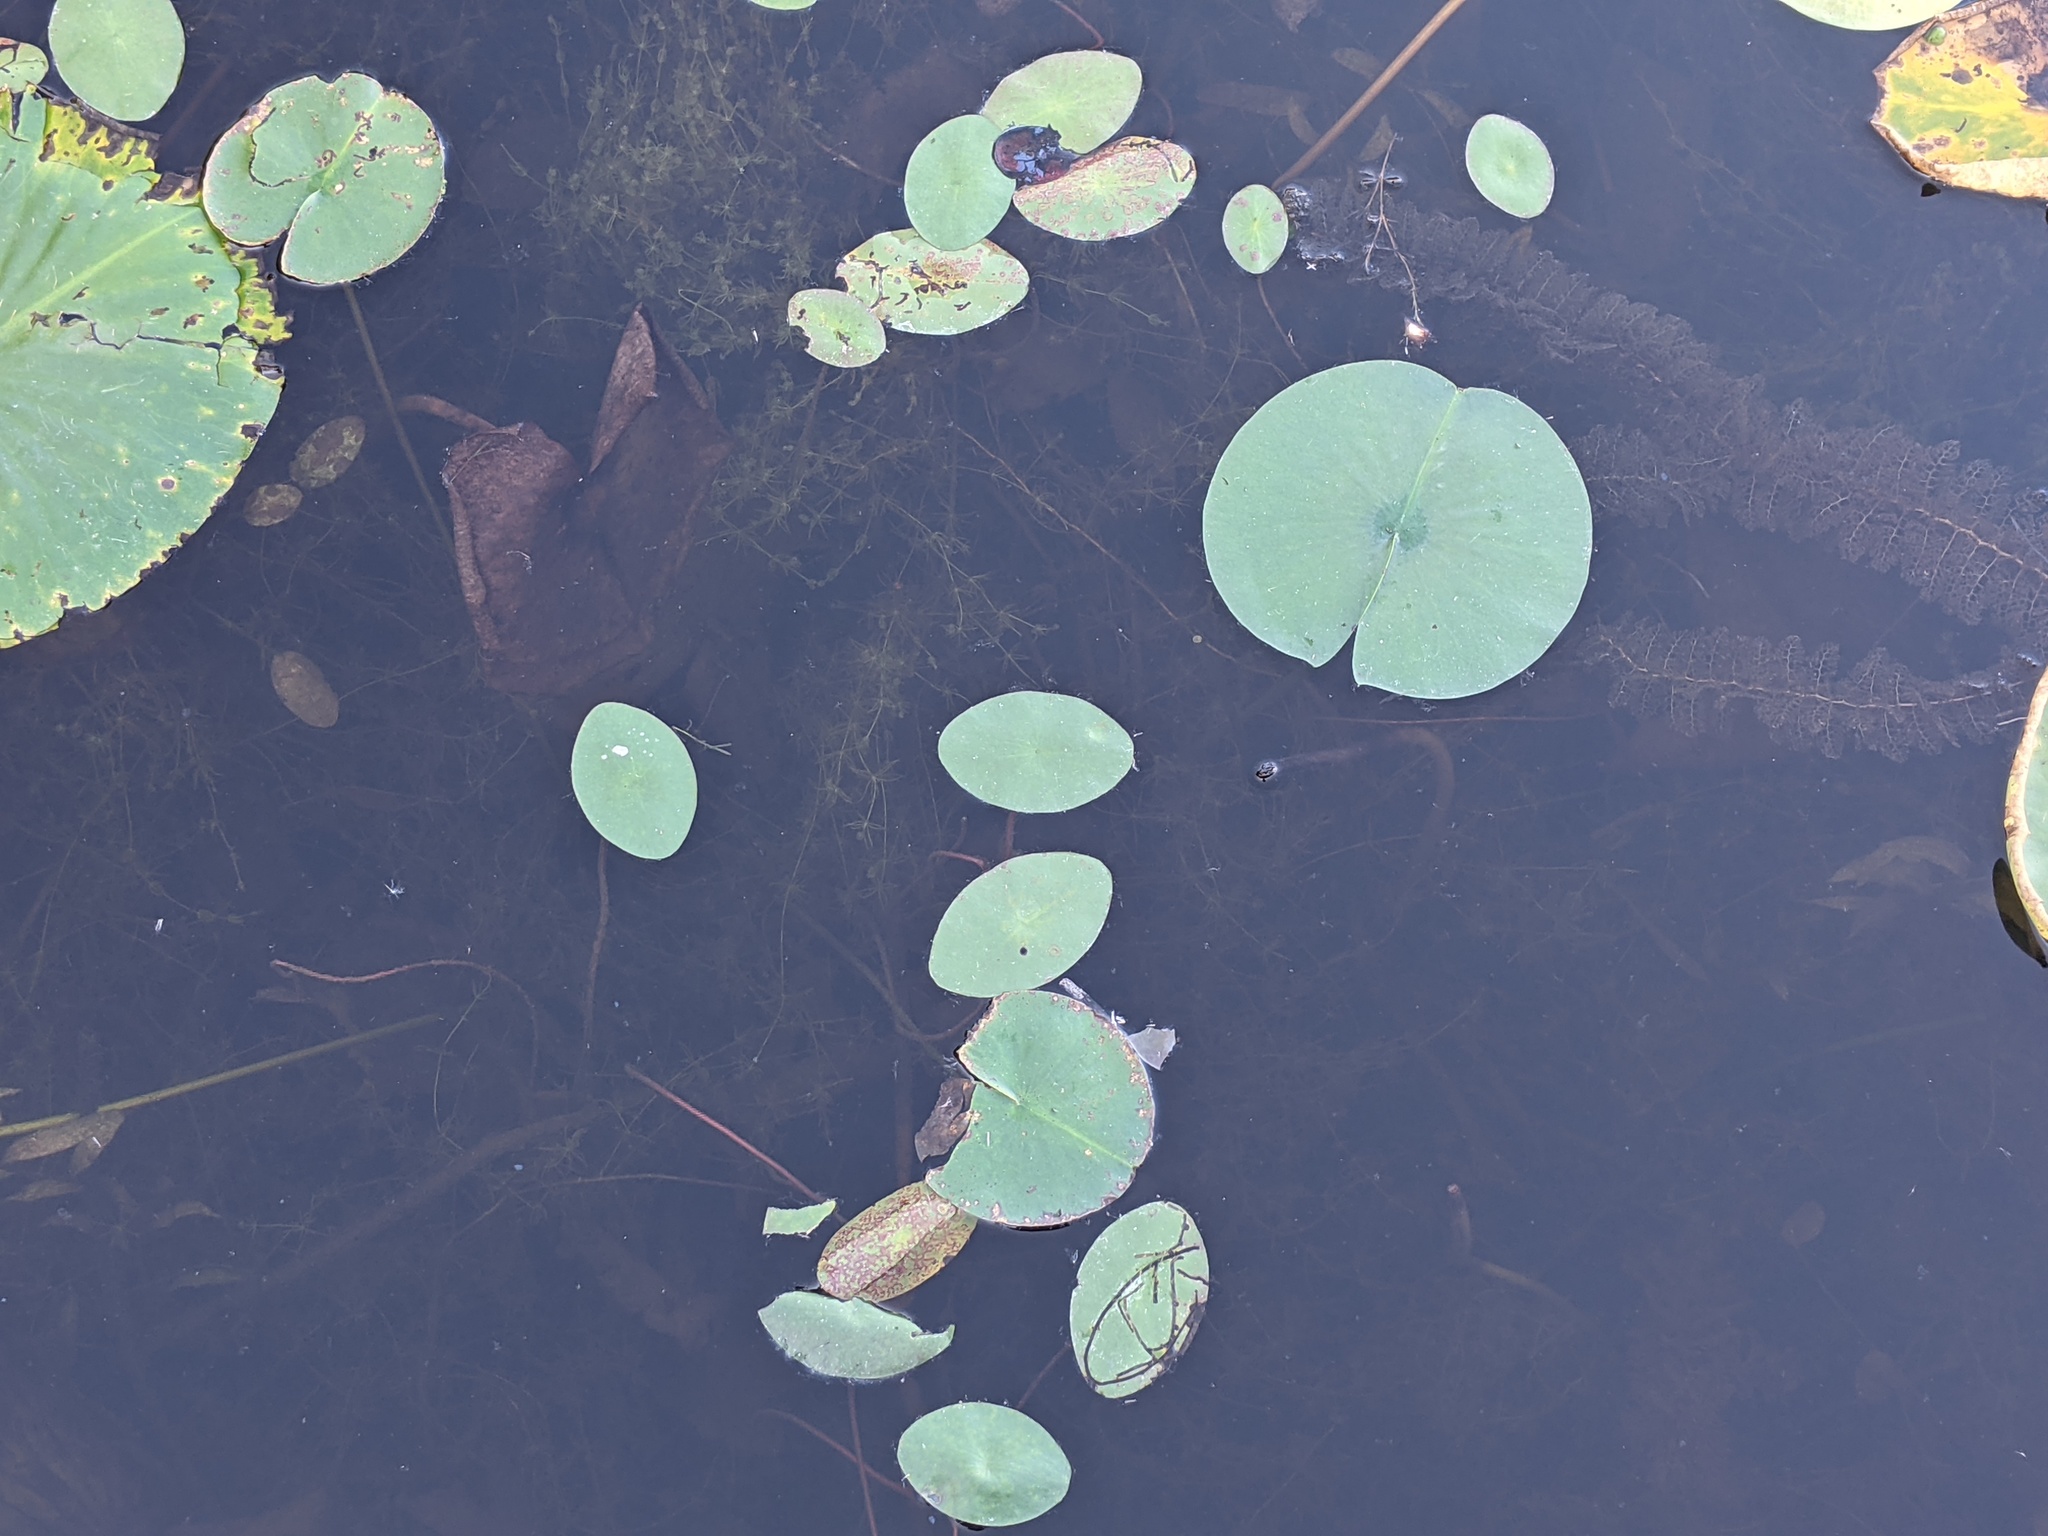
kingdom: Plantae
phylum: Tracheophyta
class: Magnoliopsida
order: Nymphaeales
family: Cabombaceae
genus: Brasenia
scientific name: Brasenia schreberi
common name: Water-shield
